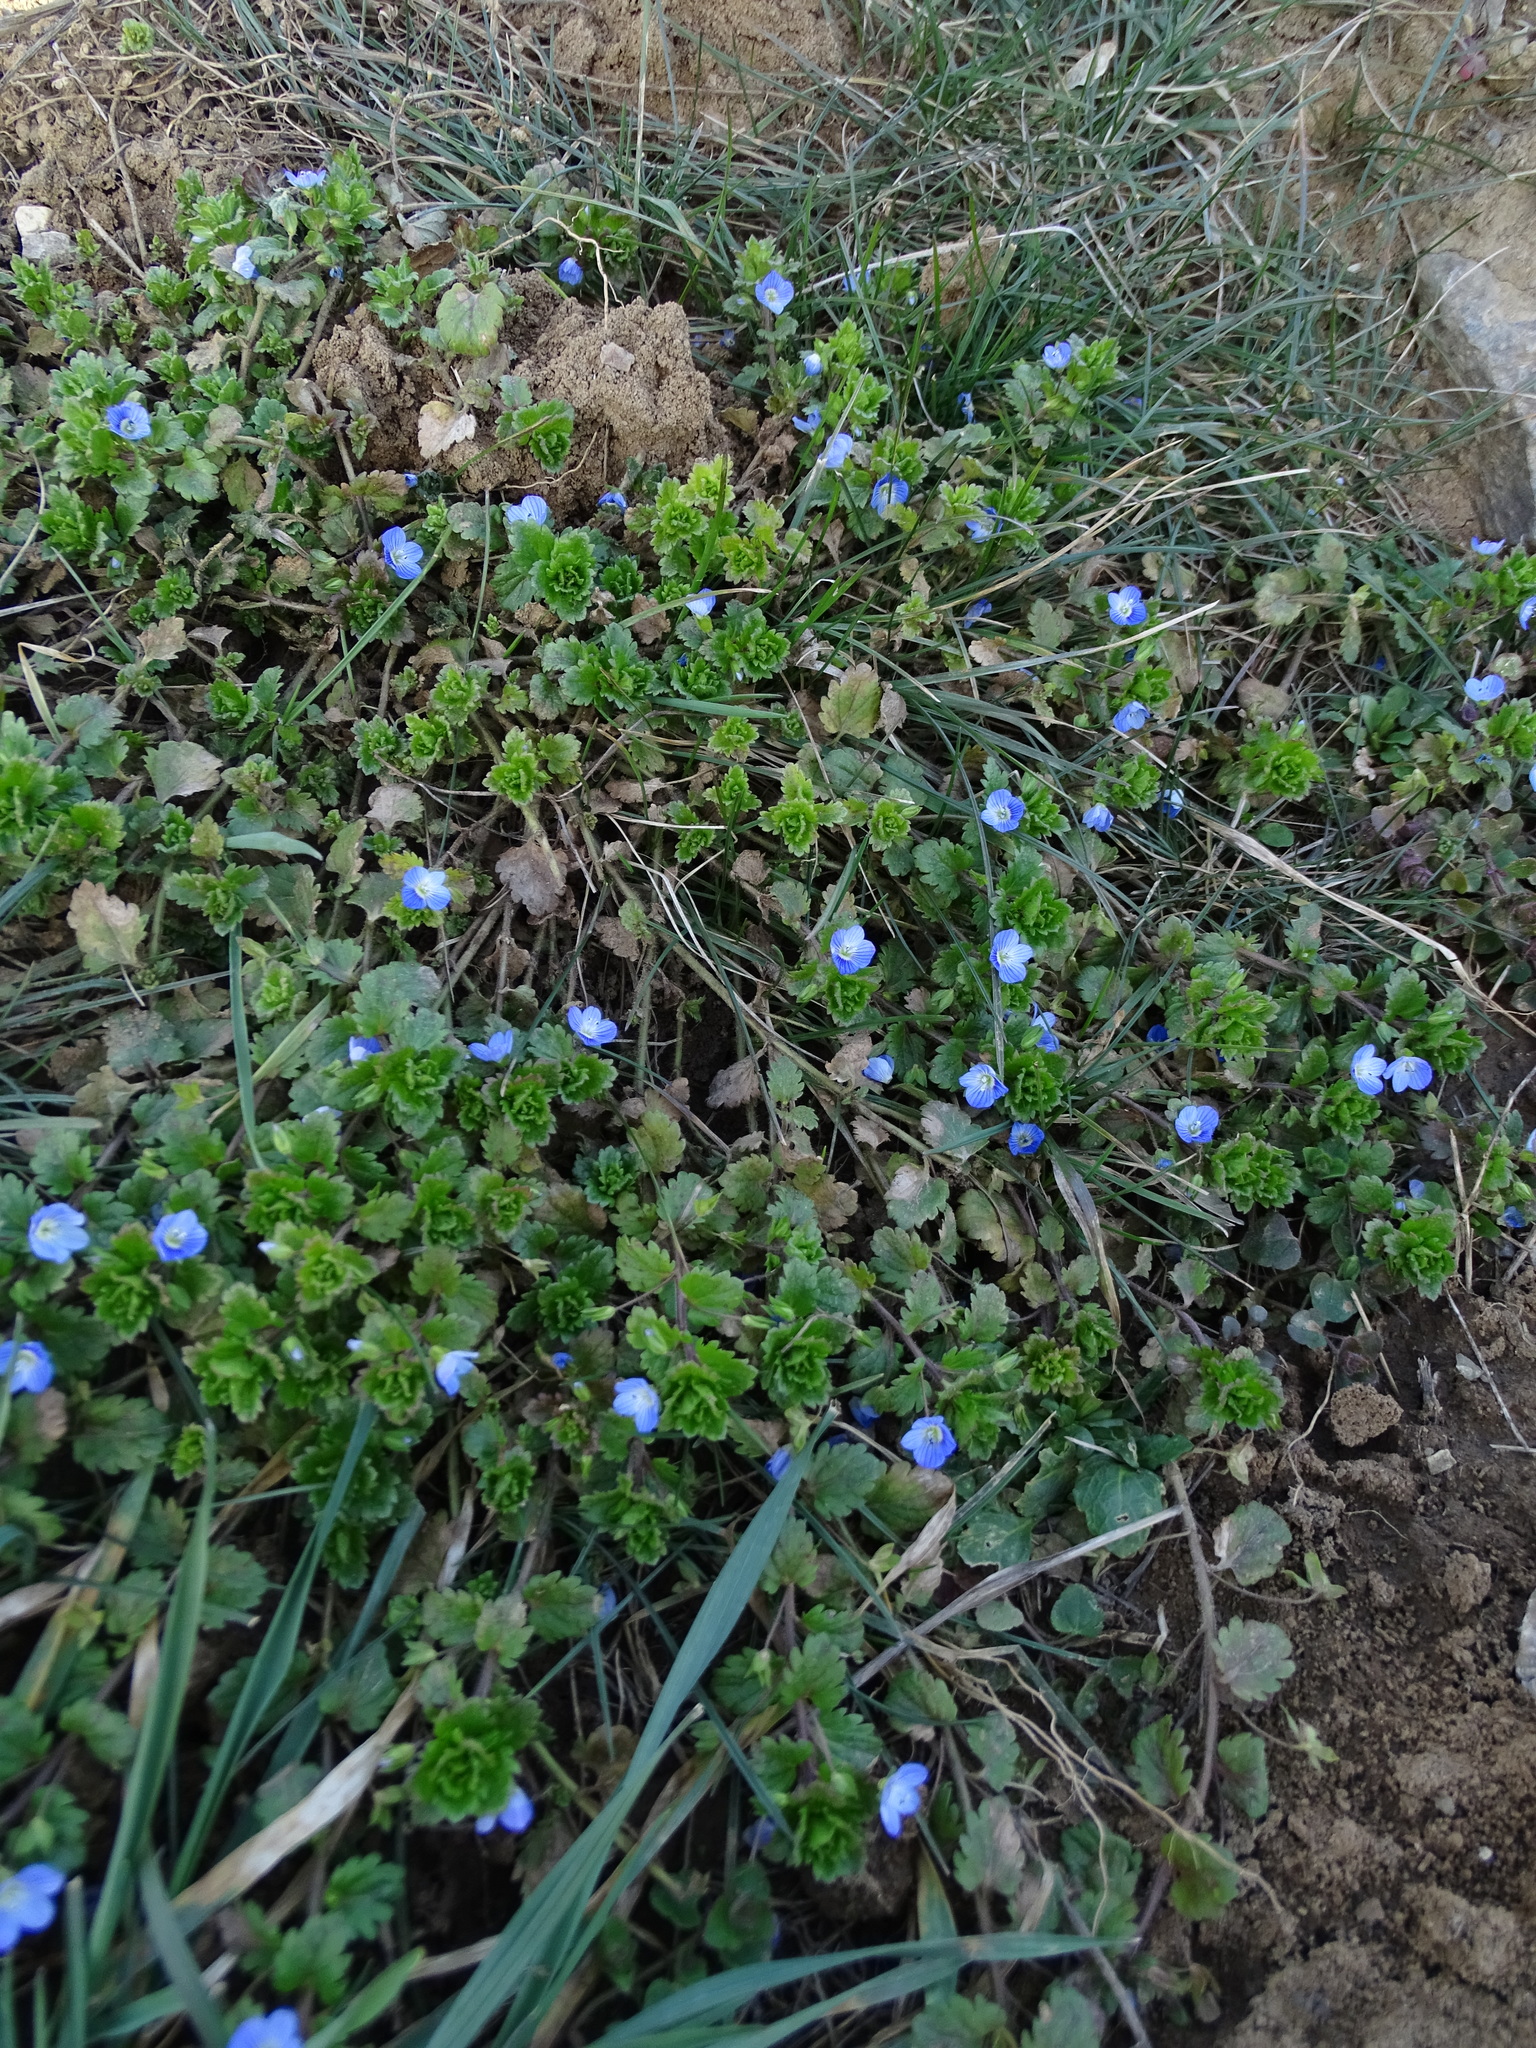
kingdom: Plantae
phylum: Tracheophyta
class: Magnoliopsida
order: Lamiales
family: Plantaginaceae
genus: Veronica
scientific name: Veronica persica
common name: Common field-speedwell
